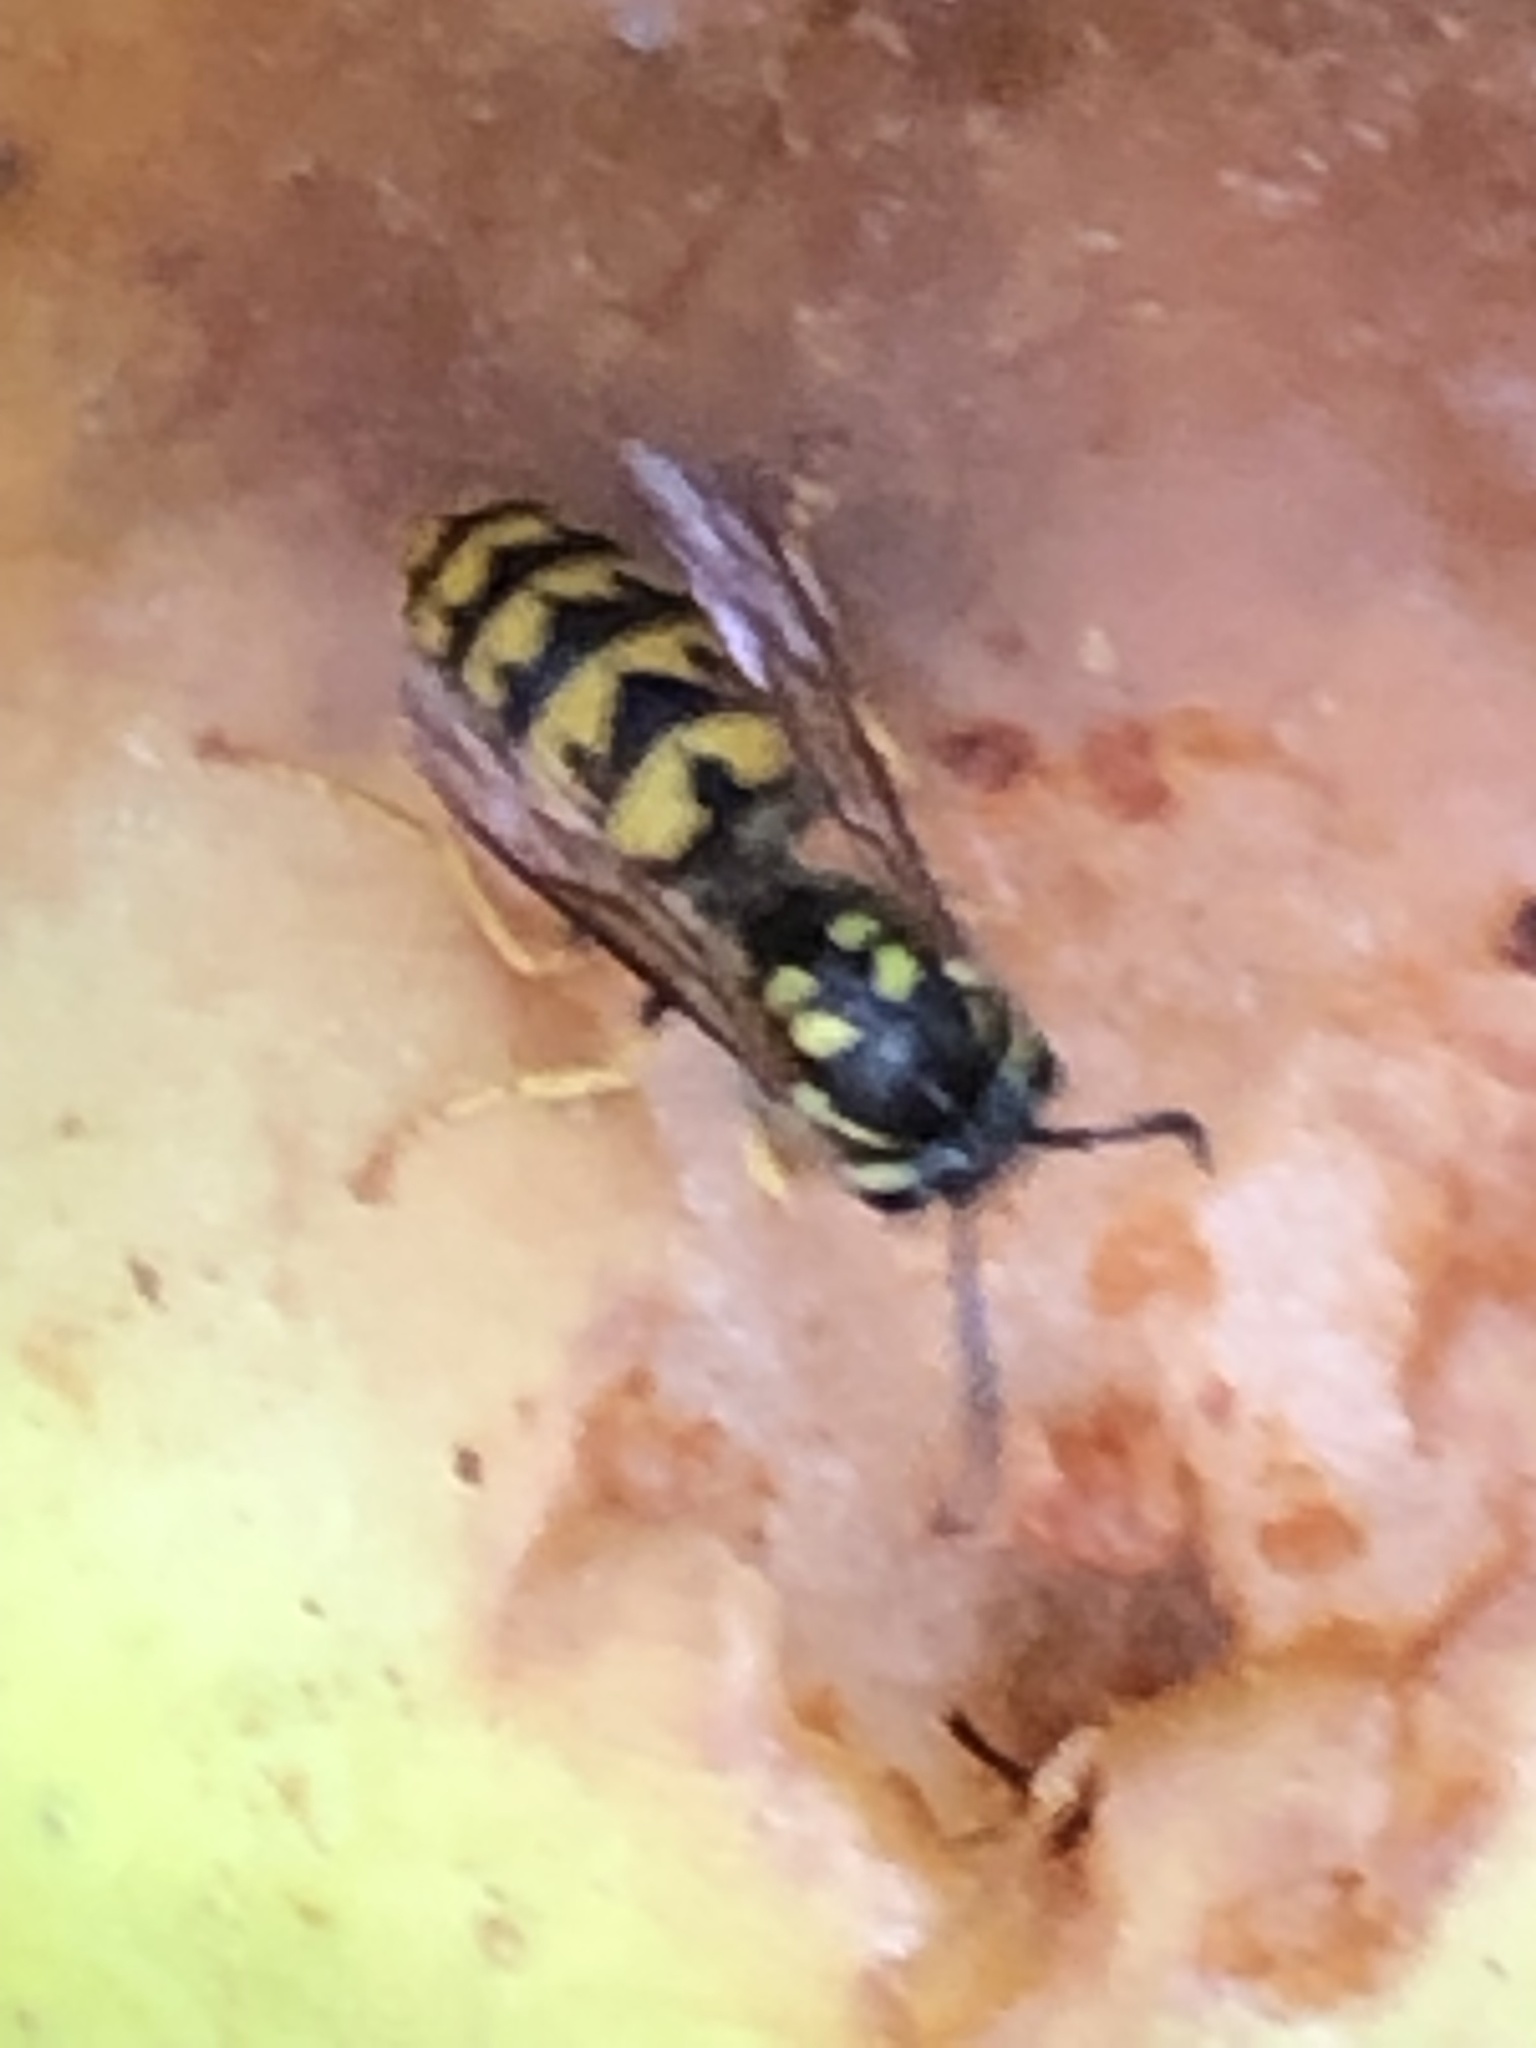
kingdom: Animalia
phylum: Arthropoda
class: Insecta
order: Hymenoptera
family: Vespidae
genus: Vespula
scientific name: Vespula germanica
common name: German wasp
